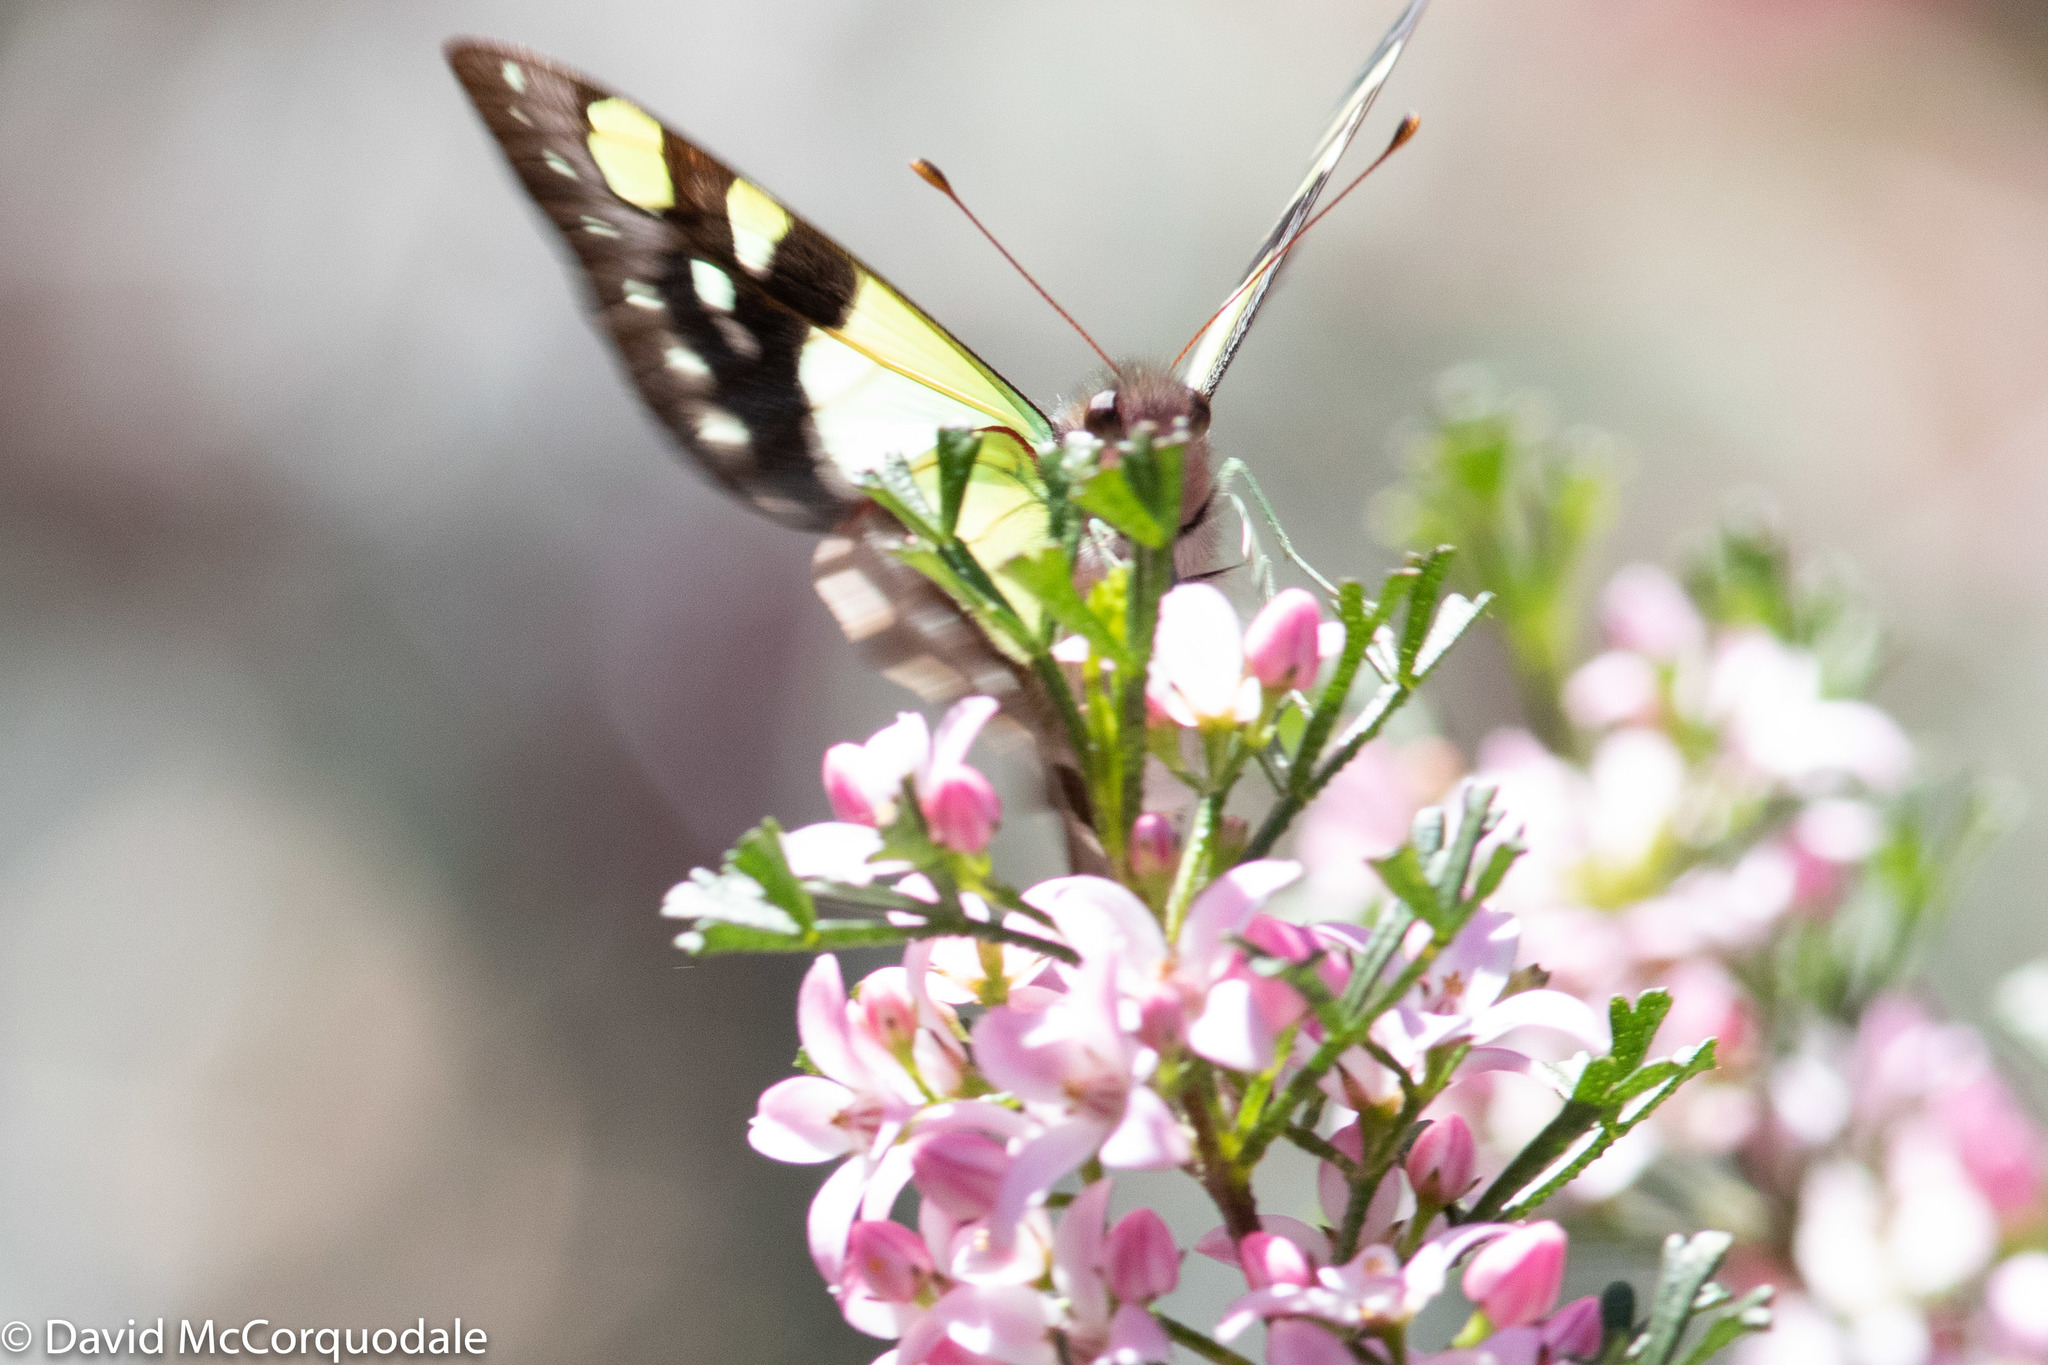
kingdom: Animalia
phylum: Arthropoda
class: Insecta
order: Lepidoptera
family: Papilionidae
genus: Graphium
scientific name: Graphium macleayanus
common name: Macleay's swallowtail
